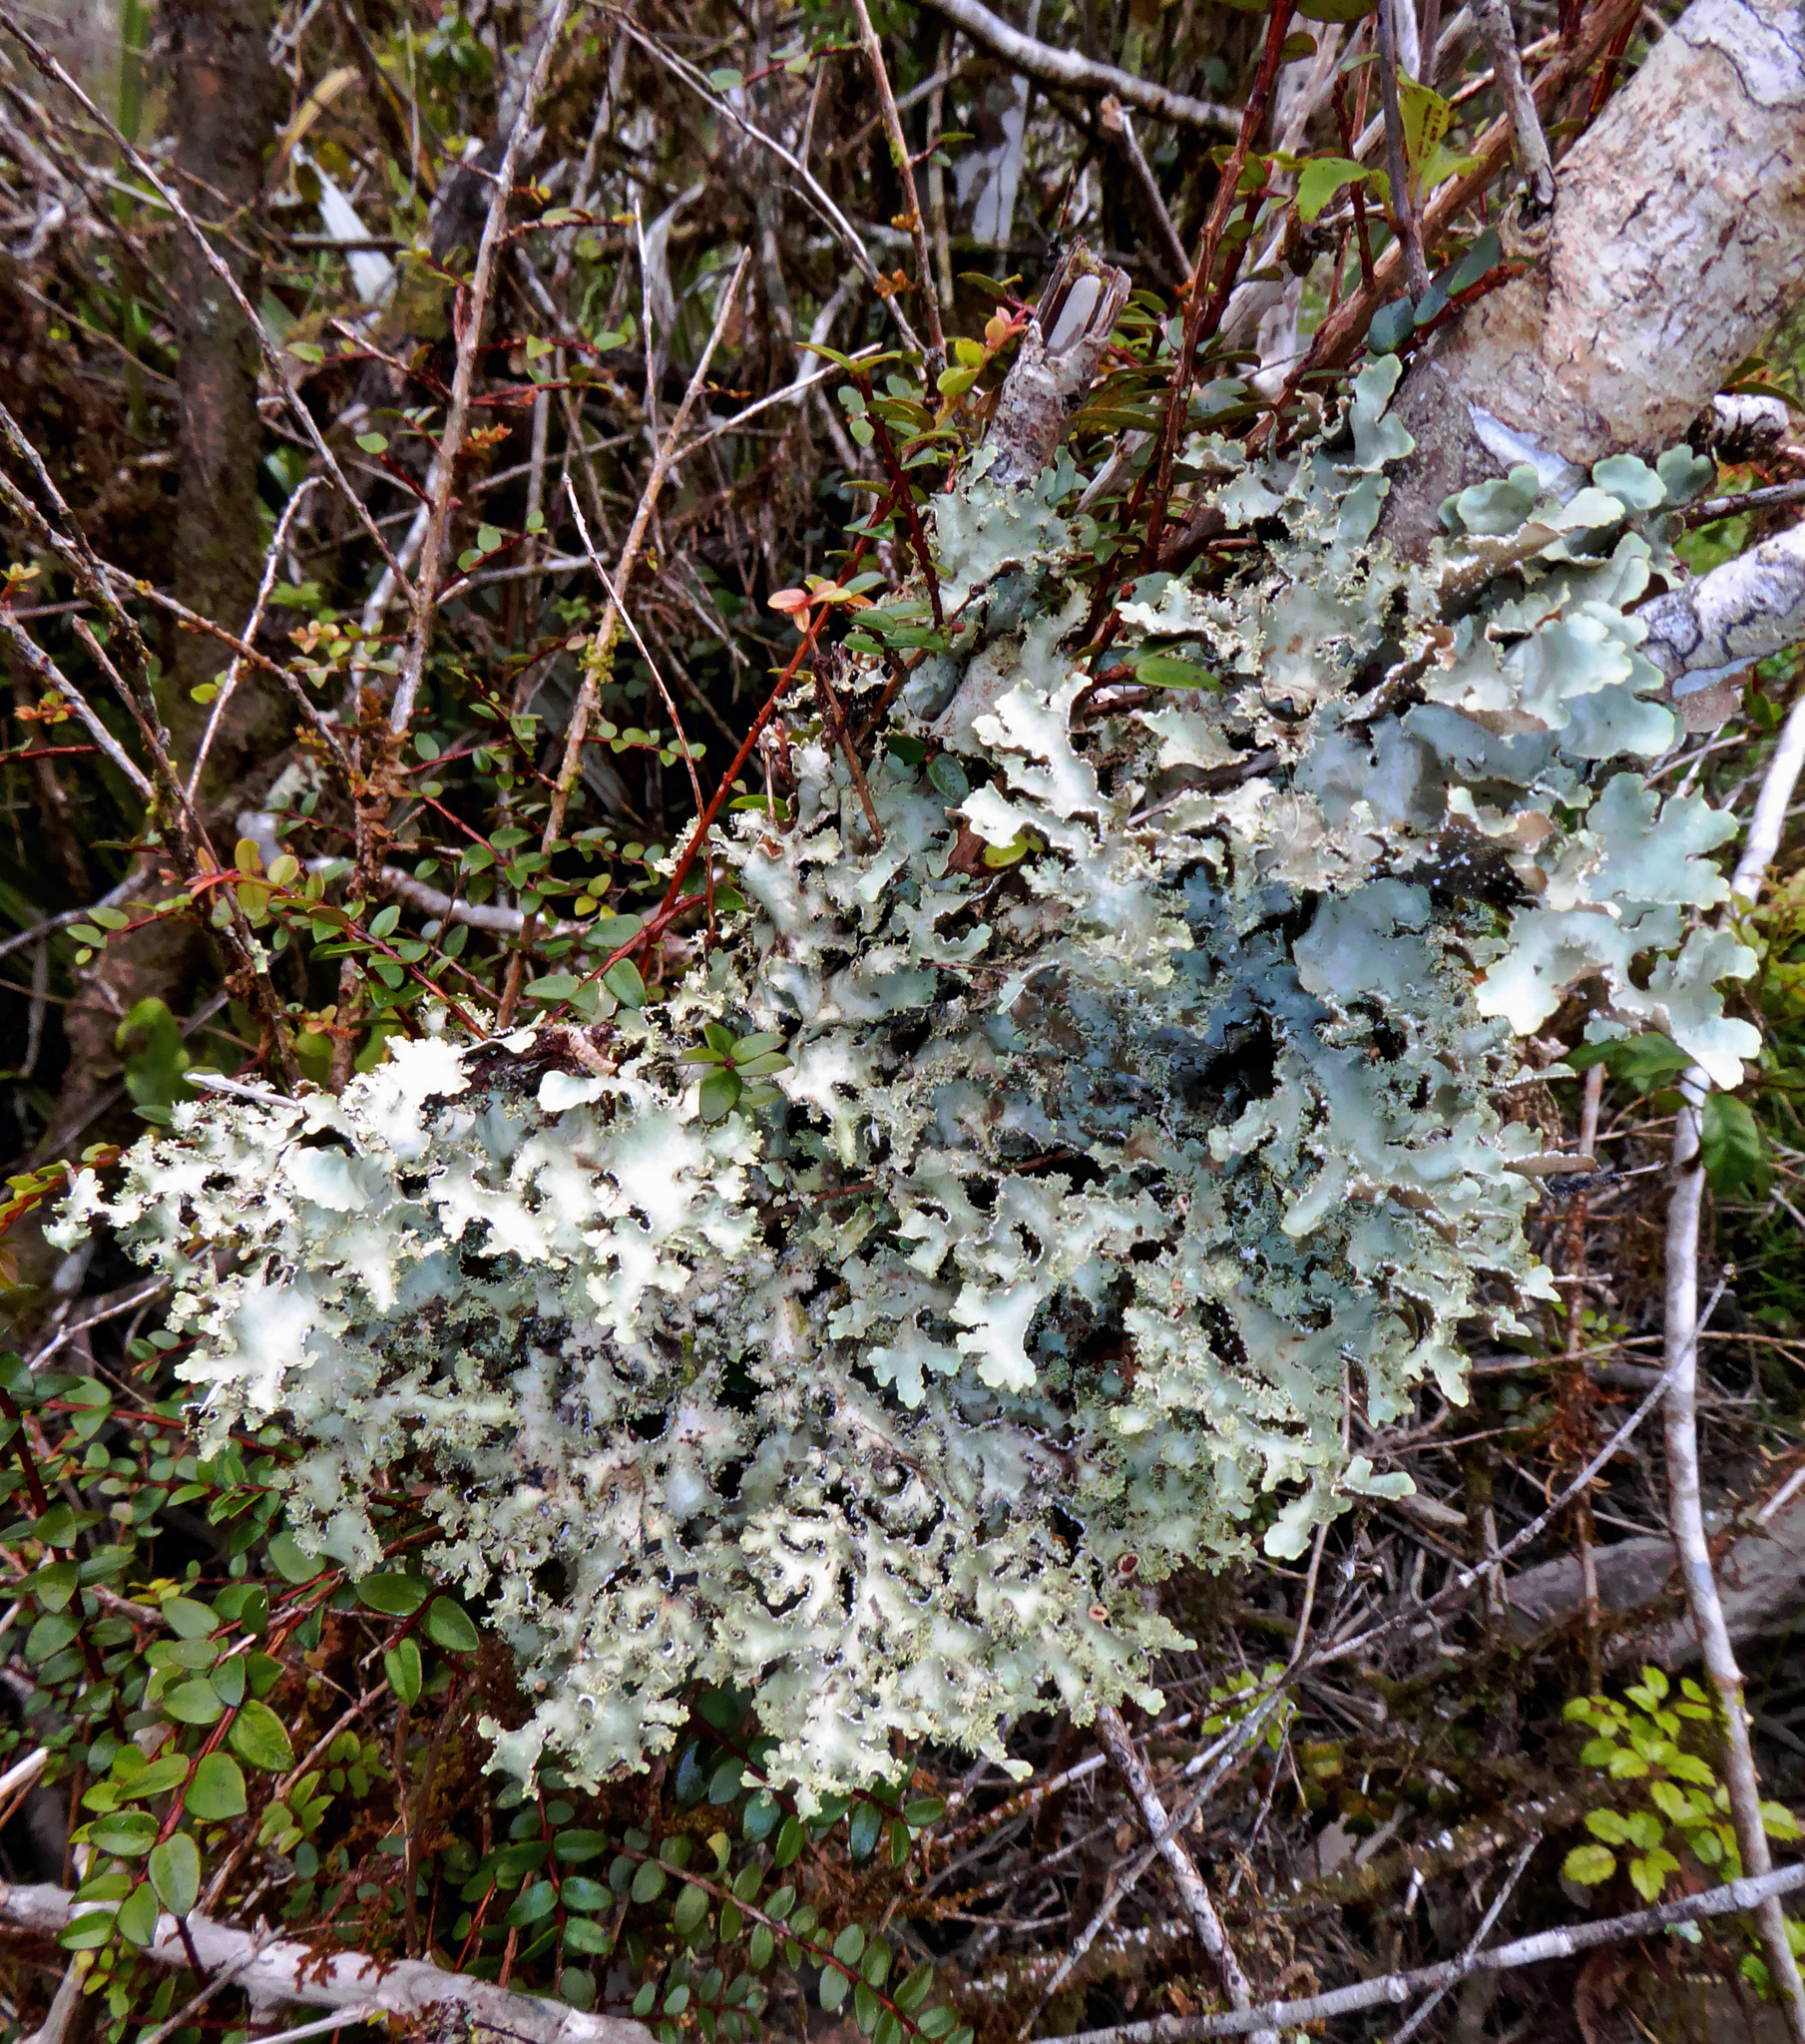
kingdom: Fungi
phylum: Ascomycota
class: Lecanoromycetes
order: Peltigerales
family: Lobariaceae
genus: Pseudocyphellaria
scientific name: Pseudocyphellaria glabra
